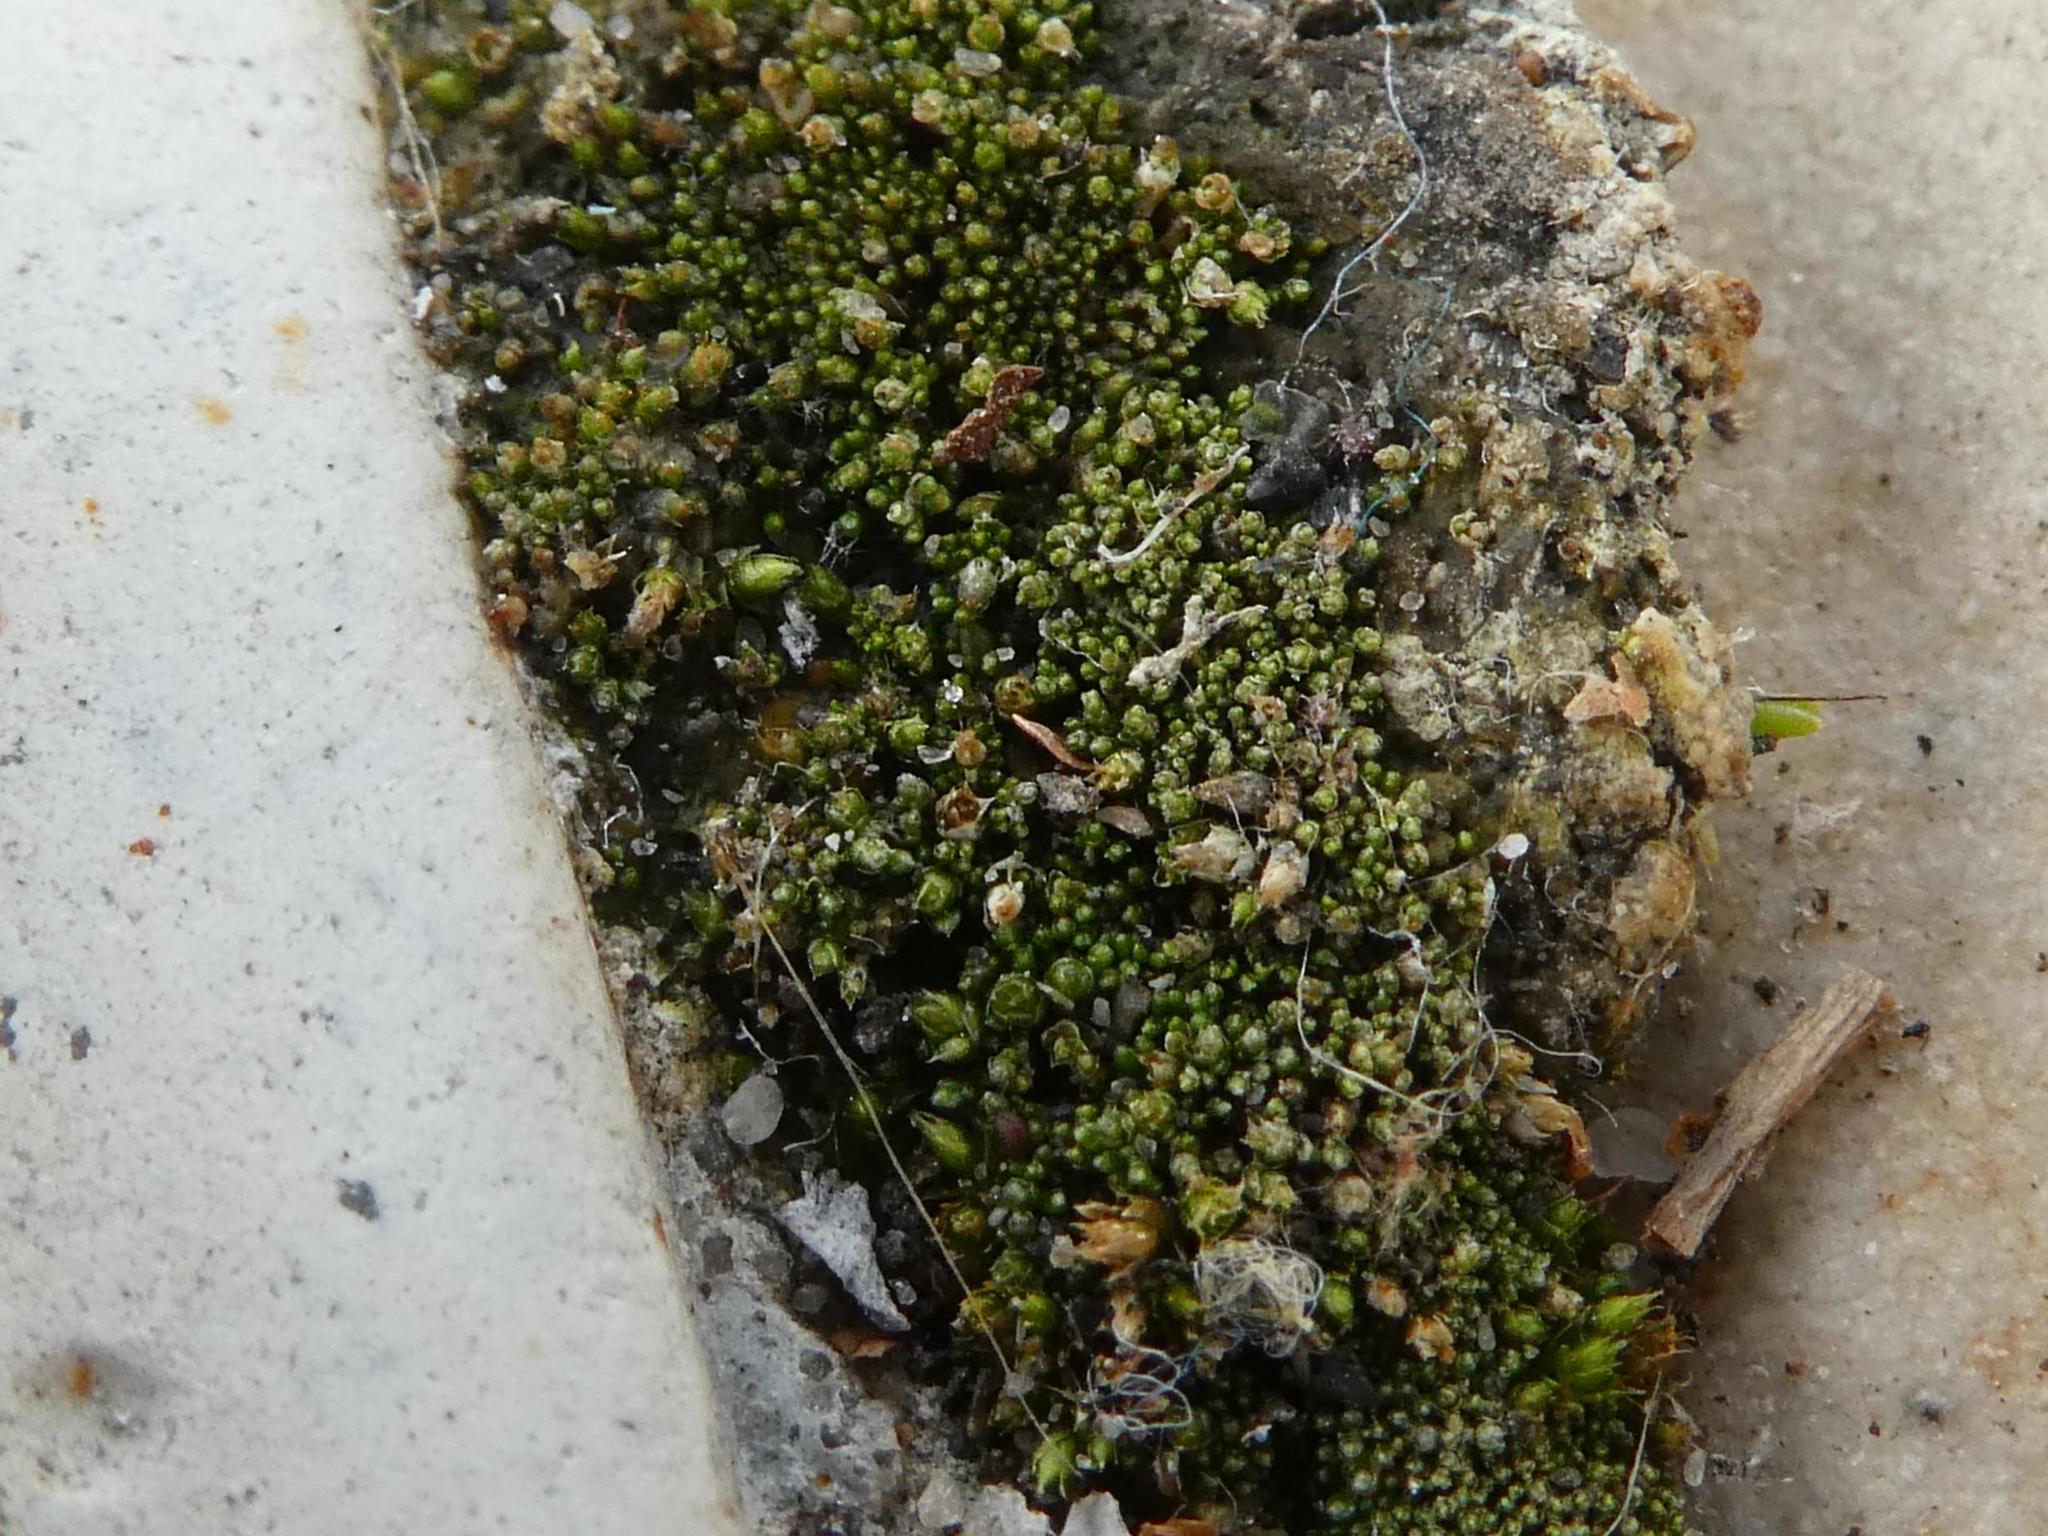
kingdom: Plantae
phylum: Bryophyta
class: Bryopsida
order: Bryales
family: Bryaceae
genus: Bryum
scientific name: Bryum argenteum
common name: Silver-moss
